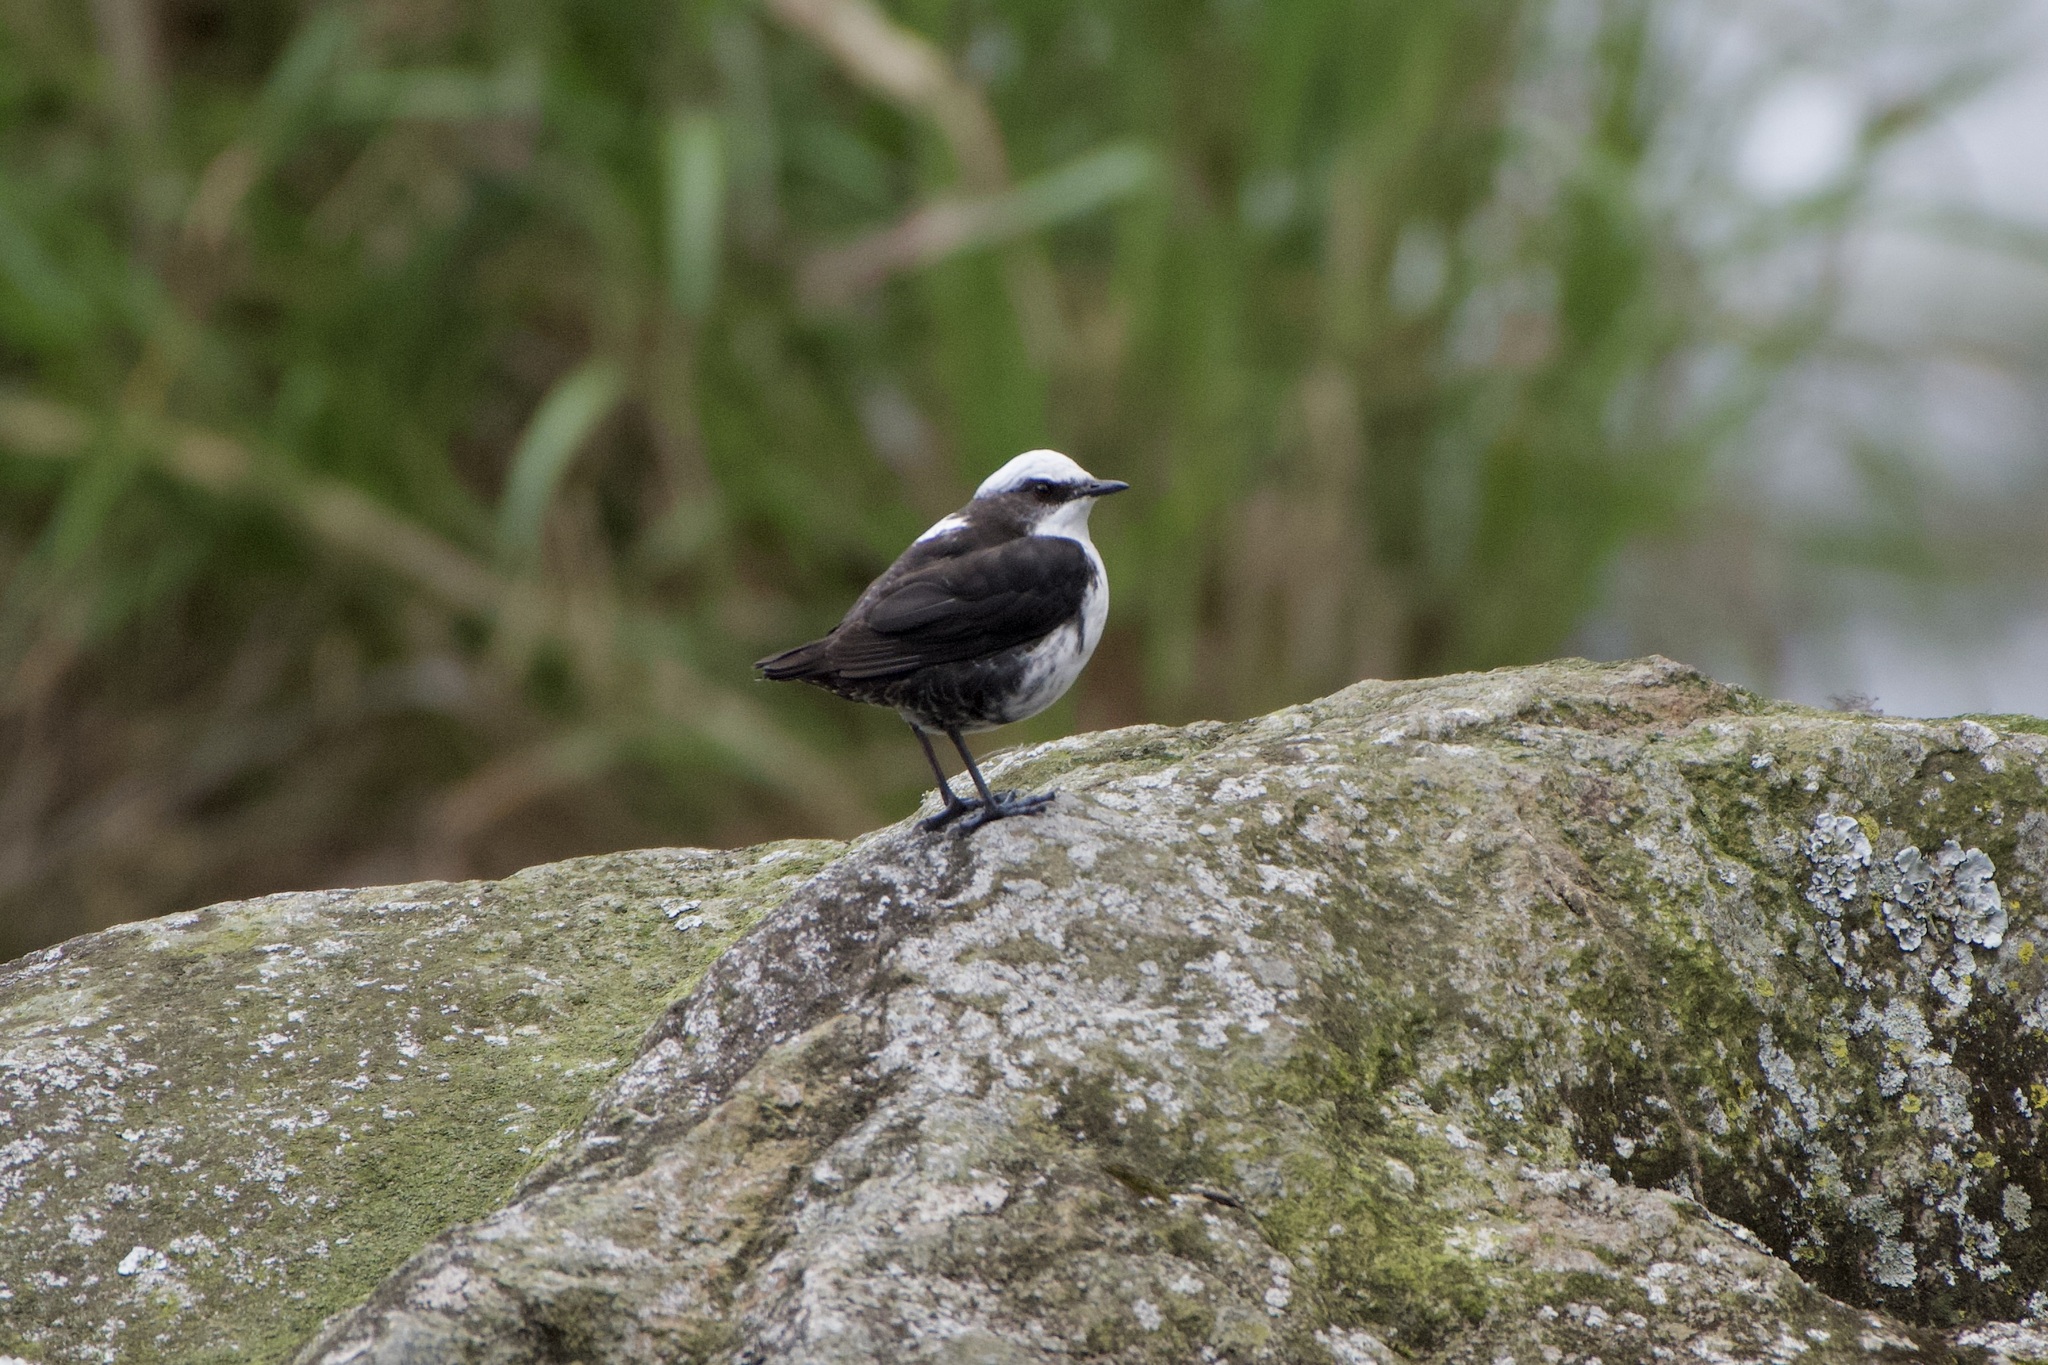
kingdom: Animalia
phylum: Chordata
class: Aves
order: Passeriformes
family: Cinclidae
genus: Cinclus
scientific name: Cinclus leucocephalus
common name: White-capped dipper
